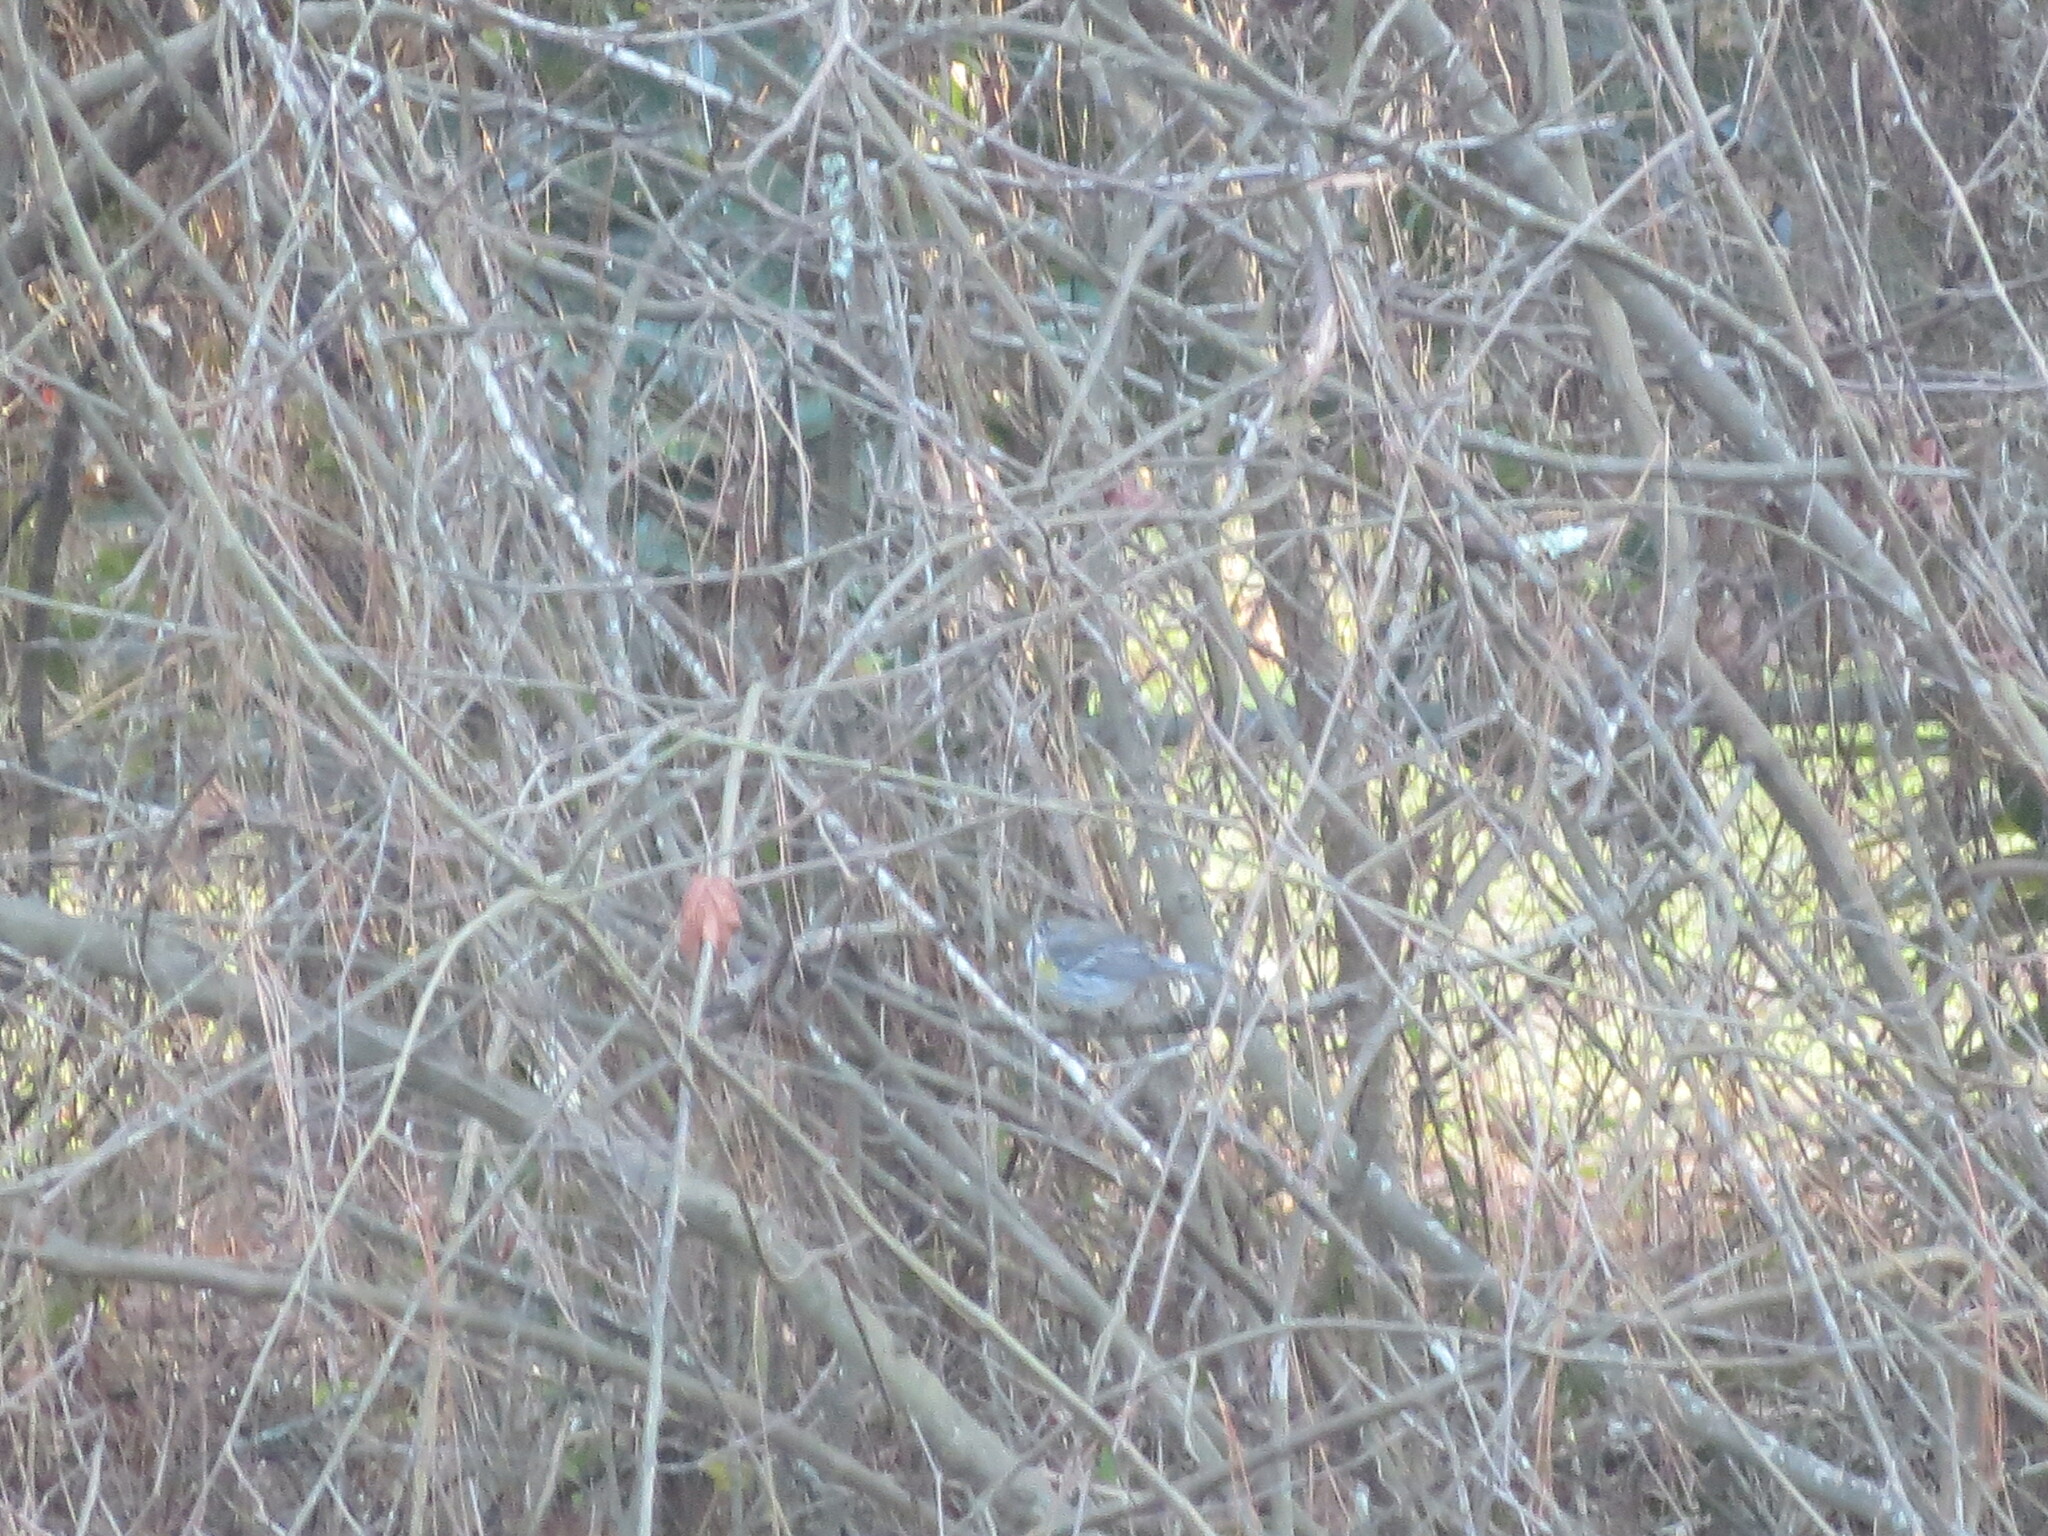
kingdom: Animalia
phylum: Chordata
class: Aves
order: Passeriformes
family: Parulidae
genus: Setophaga
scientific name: Setophaga coronata
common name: Myrtle warbler
